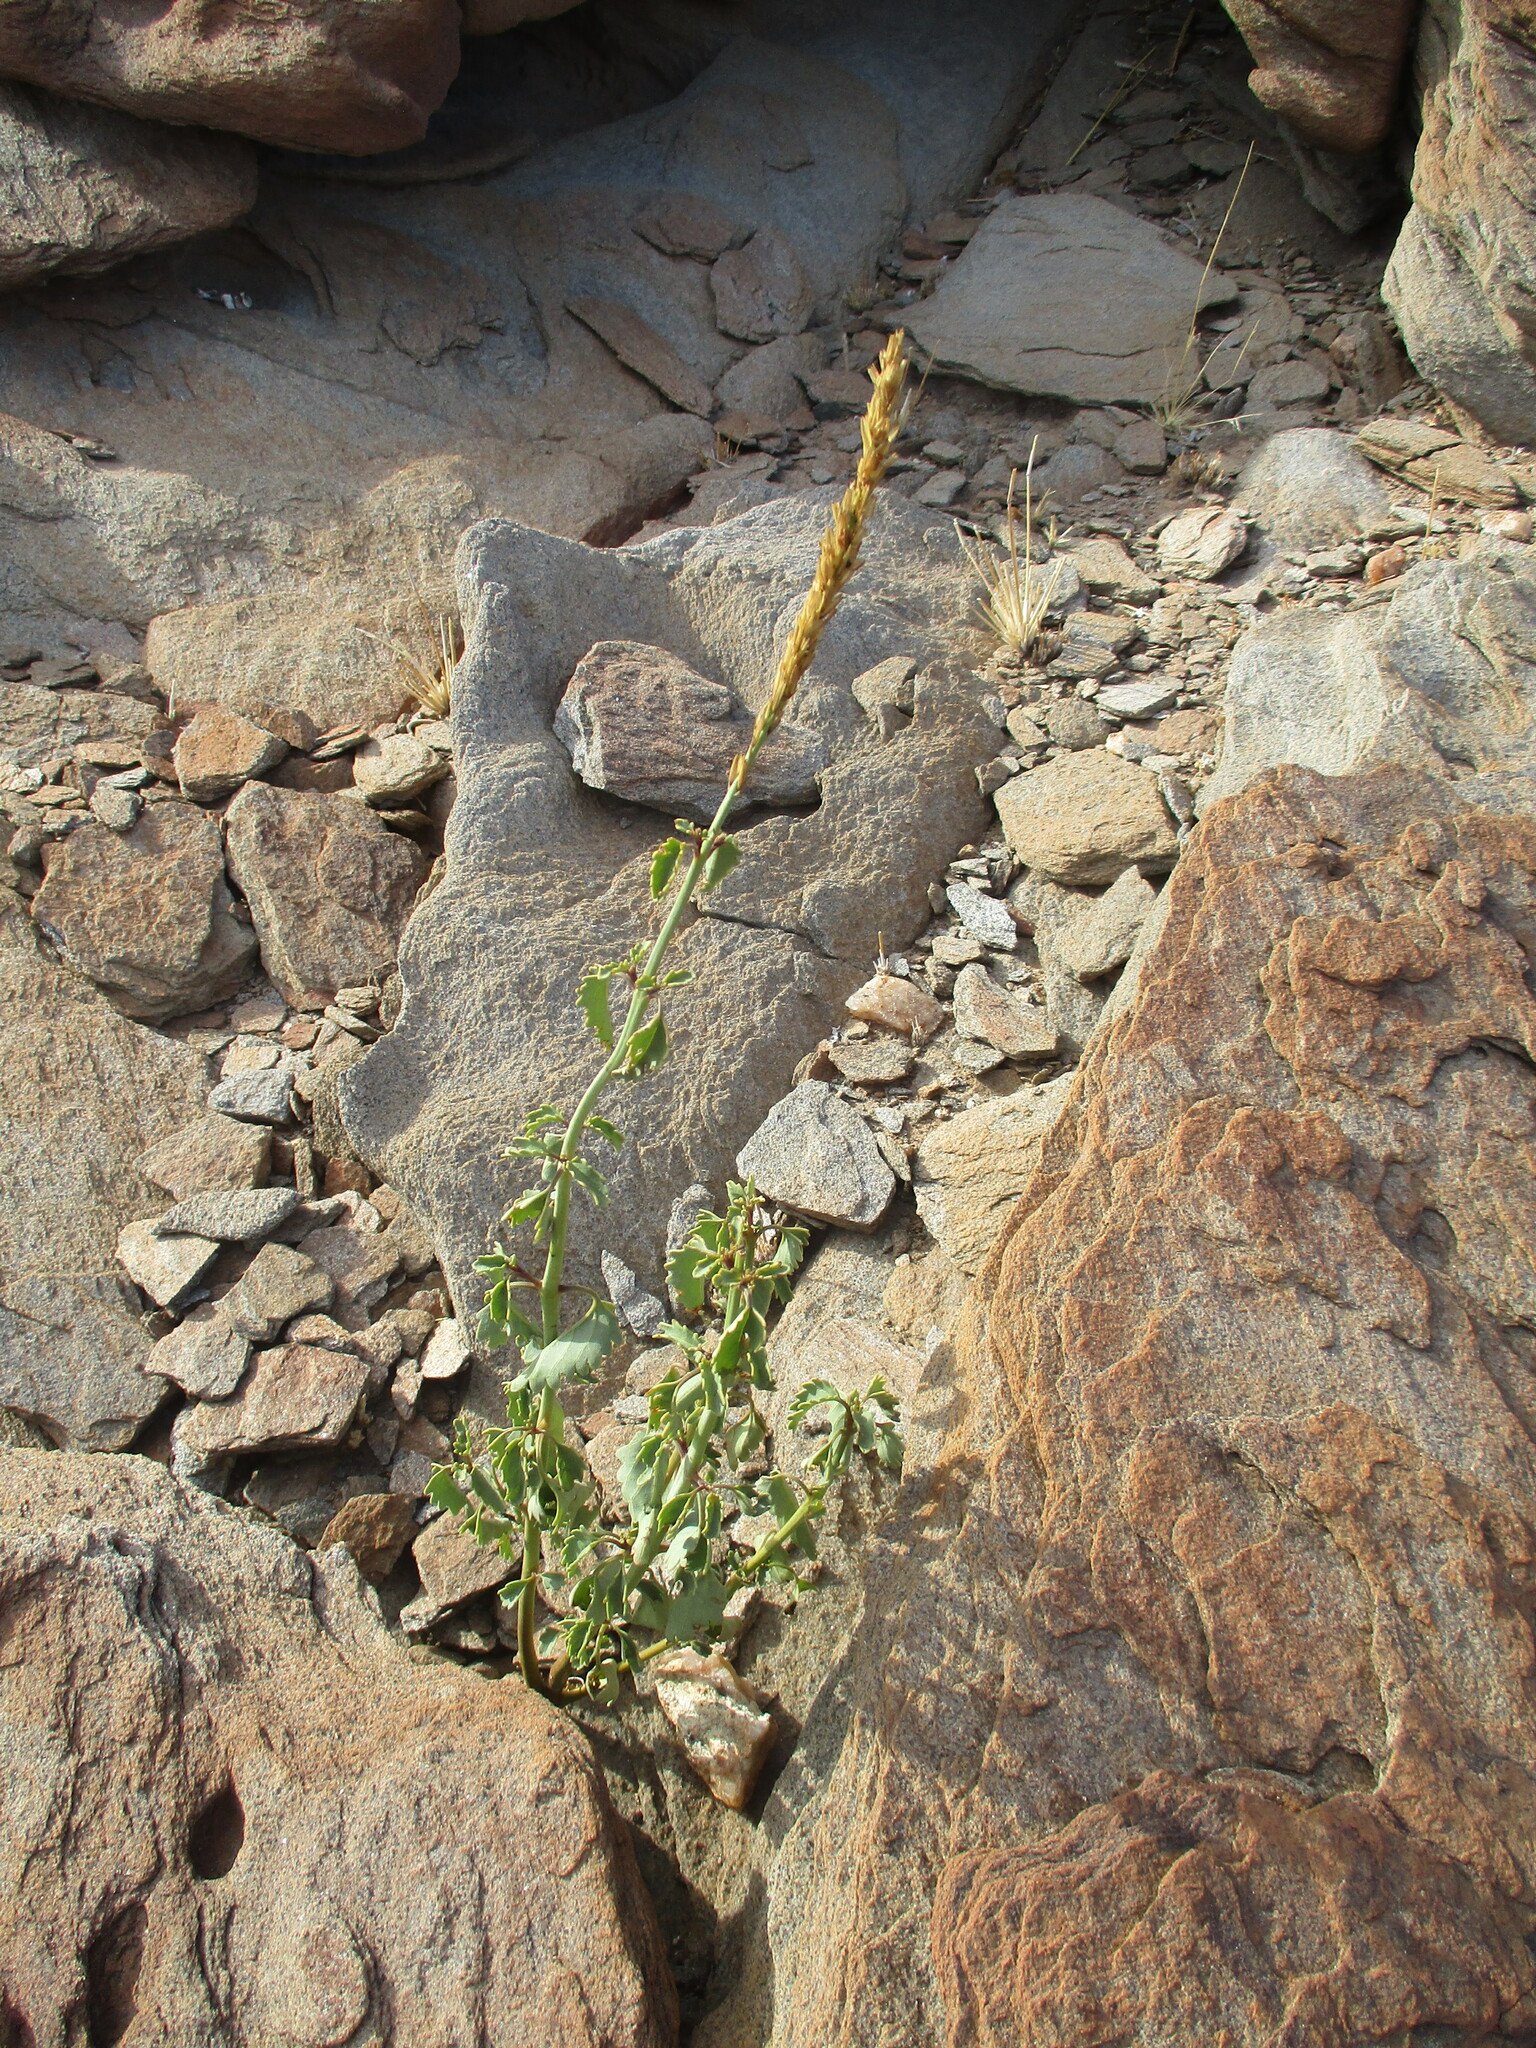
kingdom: Plantae
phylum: Tracheophyta
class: Magnoliopsida
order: Lamiales
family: Verbenaceae
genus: Chascanum
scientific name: Chascanum garipense
